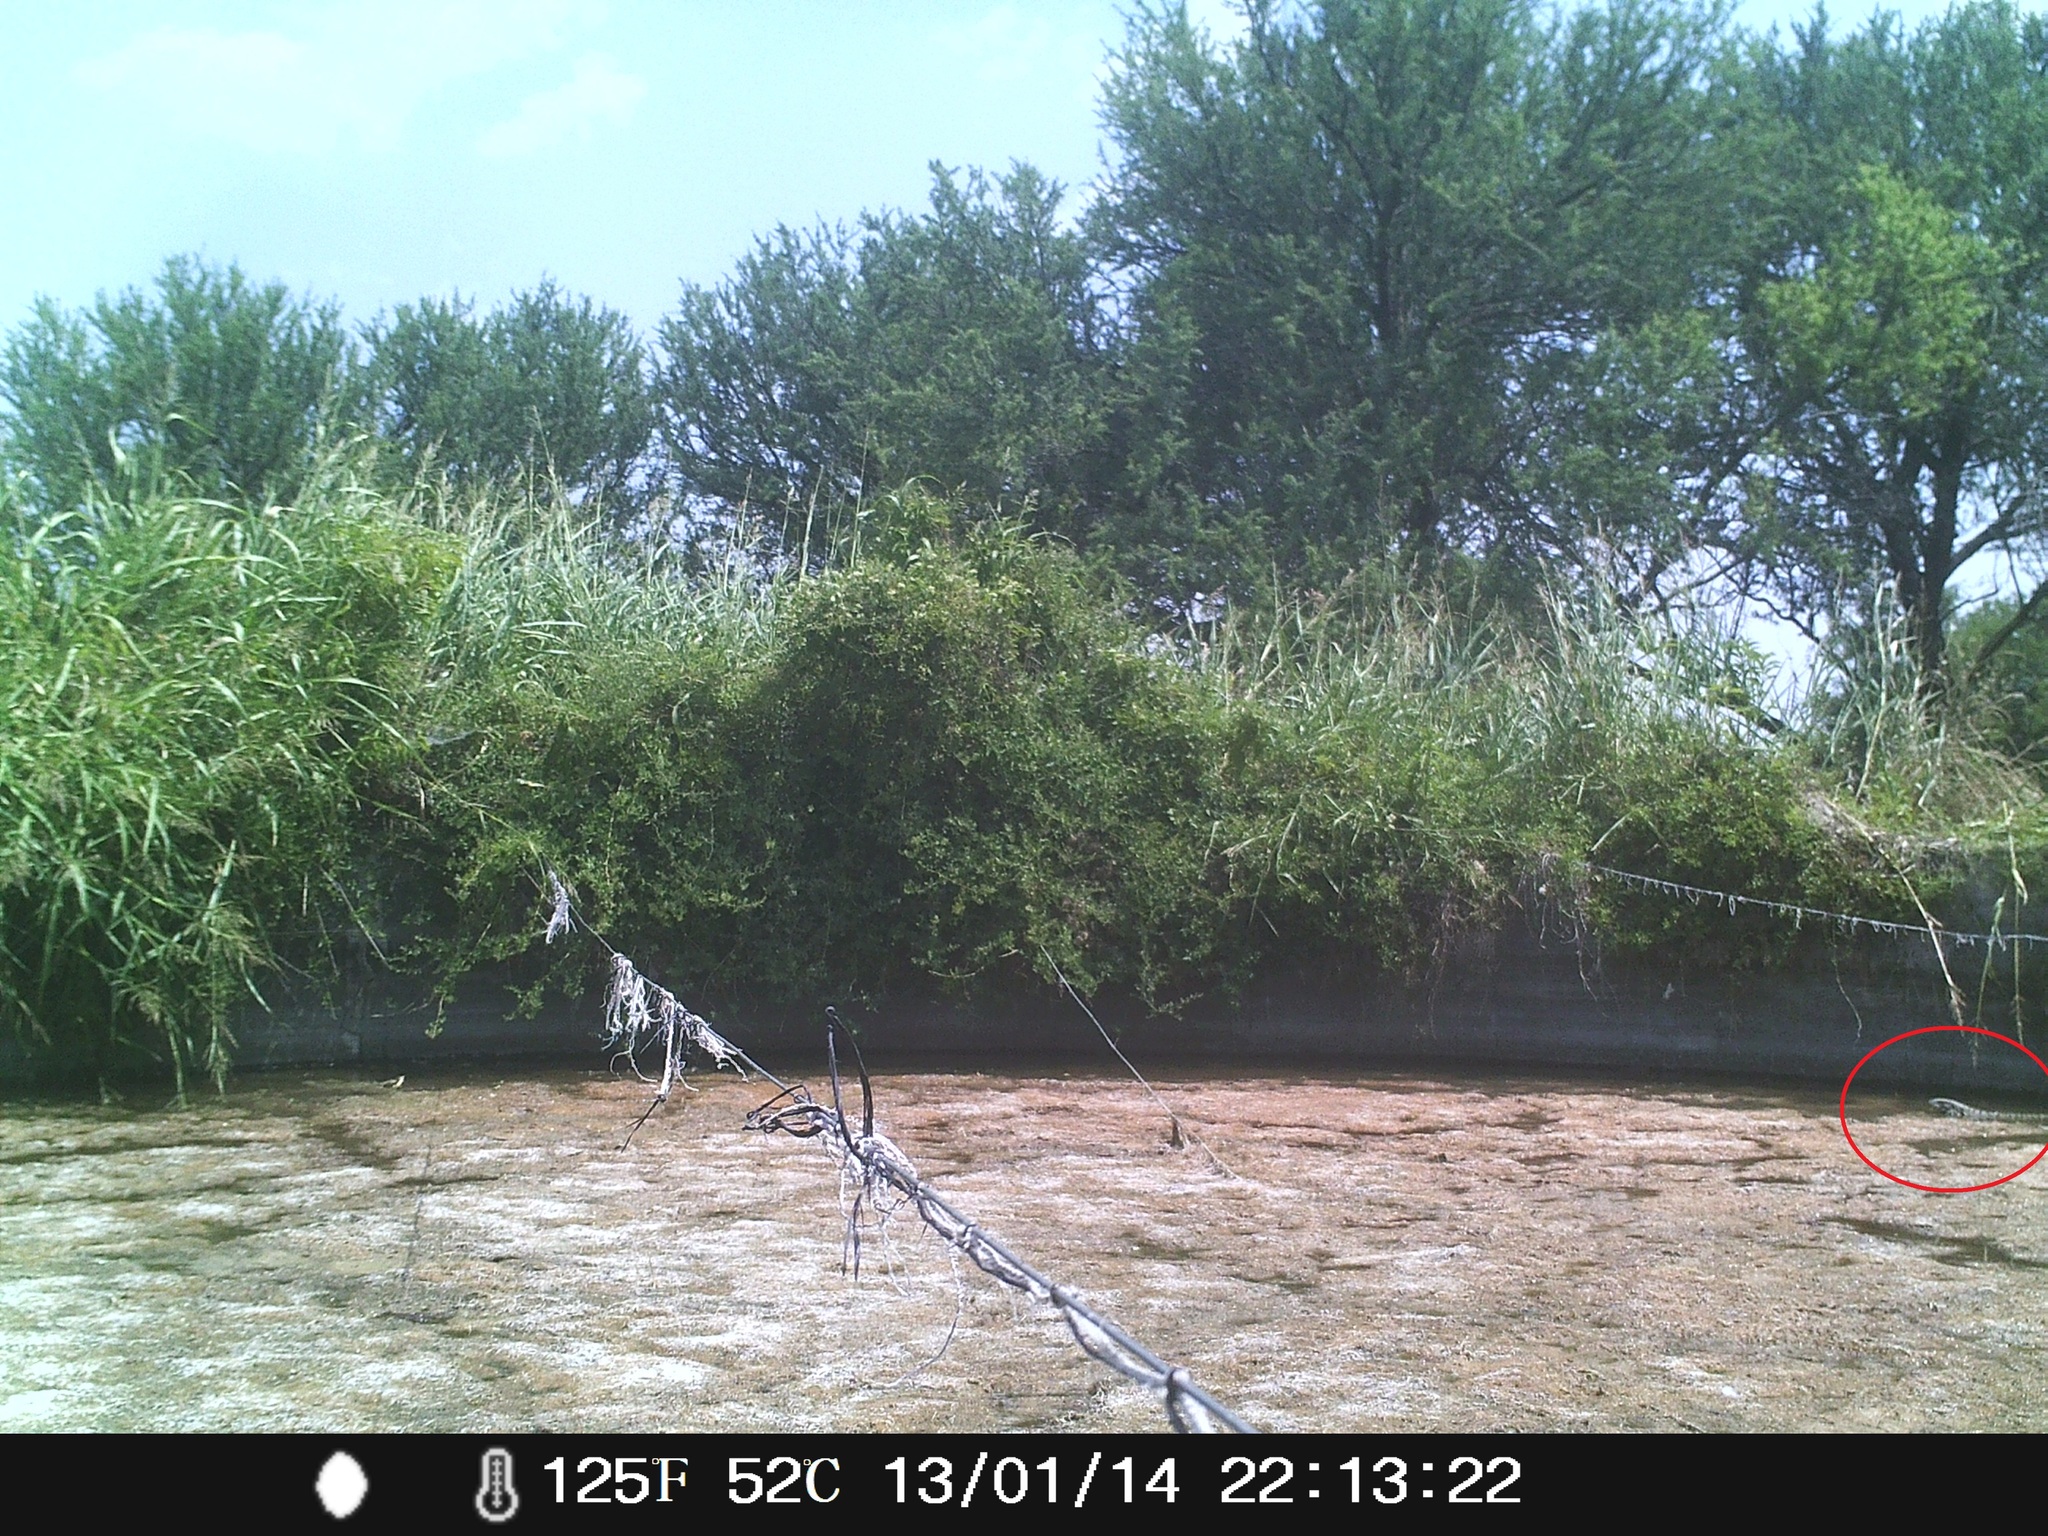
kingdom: Animalia
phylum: Chordata
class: Squamata
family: Teiidae
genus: Salvator
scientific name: Salvator merianae
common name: Argentine black and white tegu
